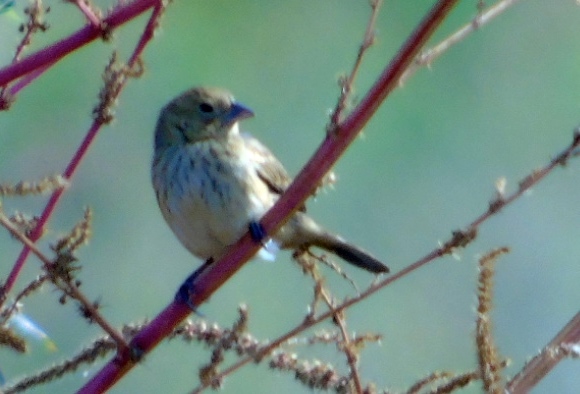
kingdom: Animalia
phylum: Chordata
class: Aves
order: Passeriformes
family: Thraupidae
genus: Volatinia
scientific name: Volatinia jacarina
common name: Blue-black grassquit
